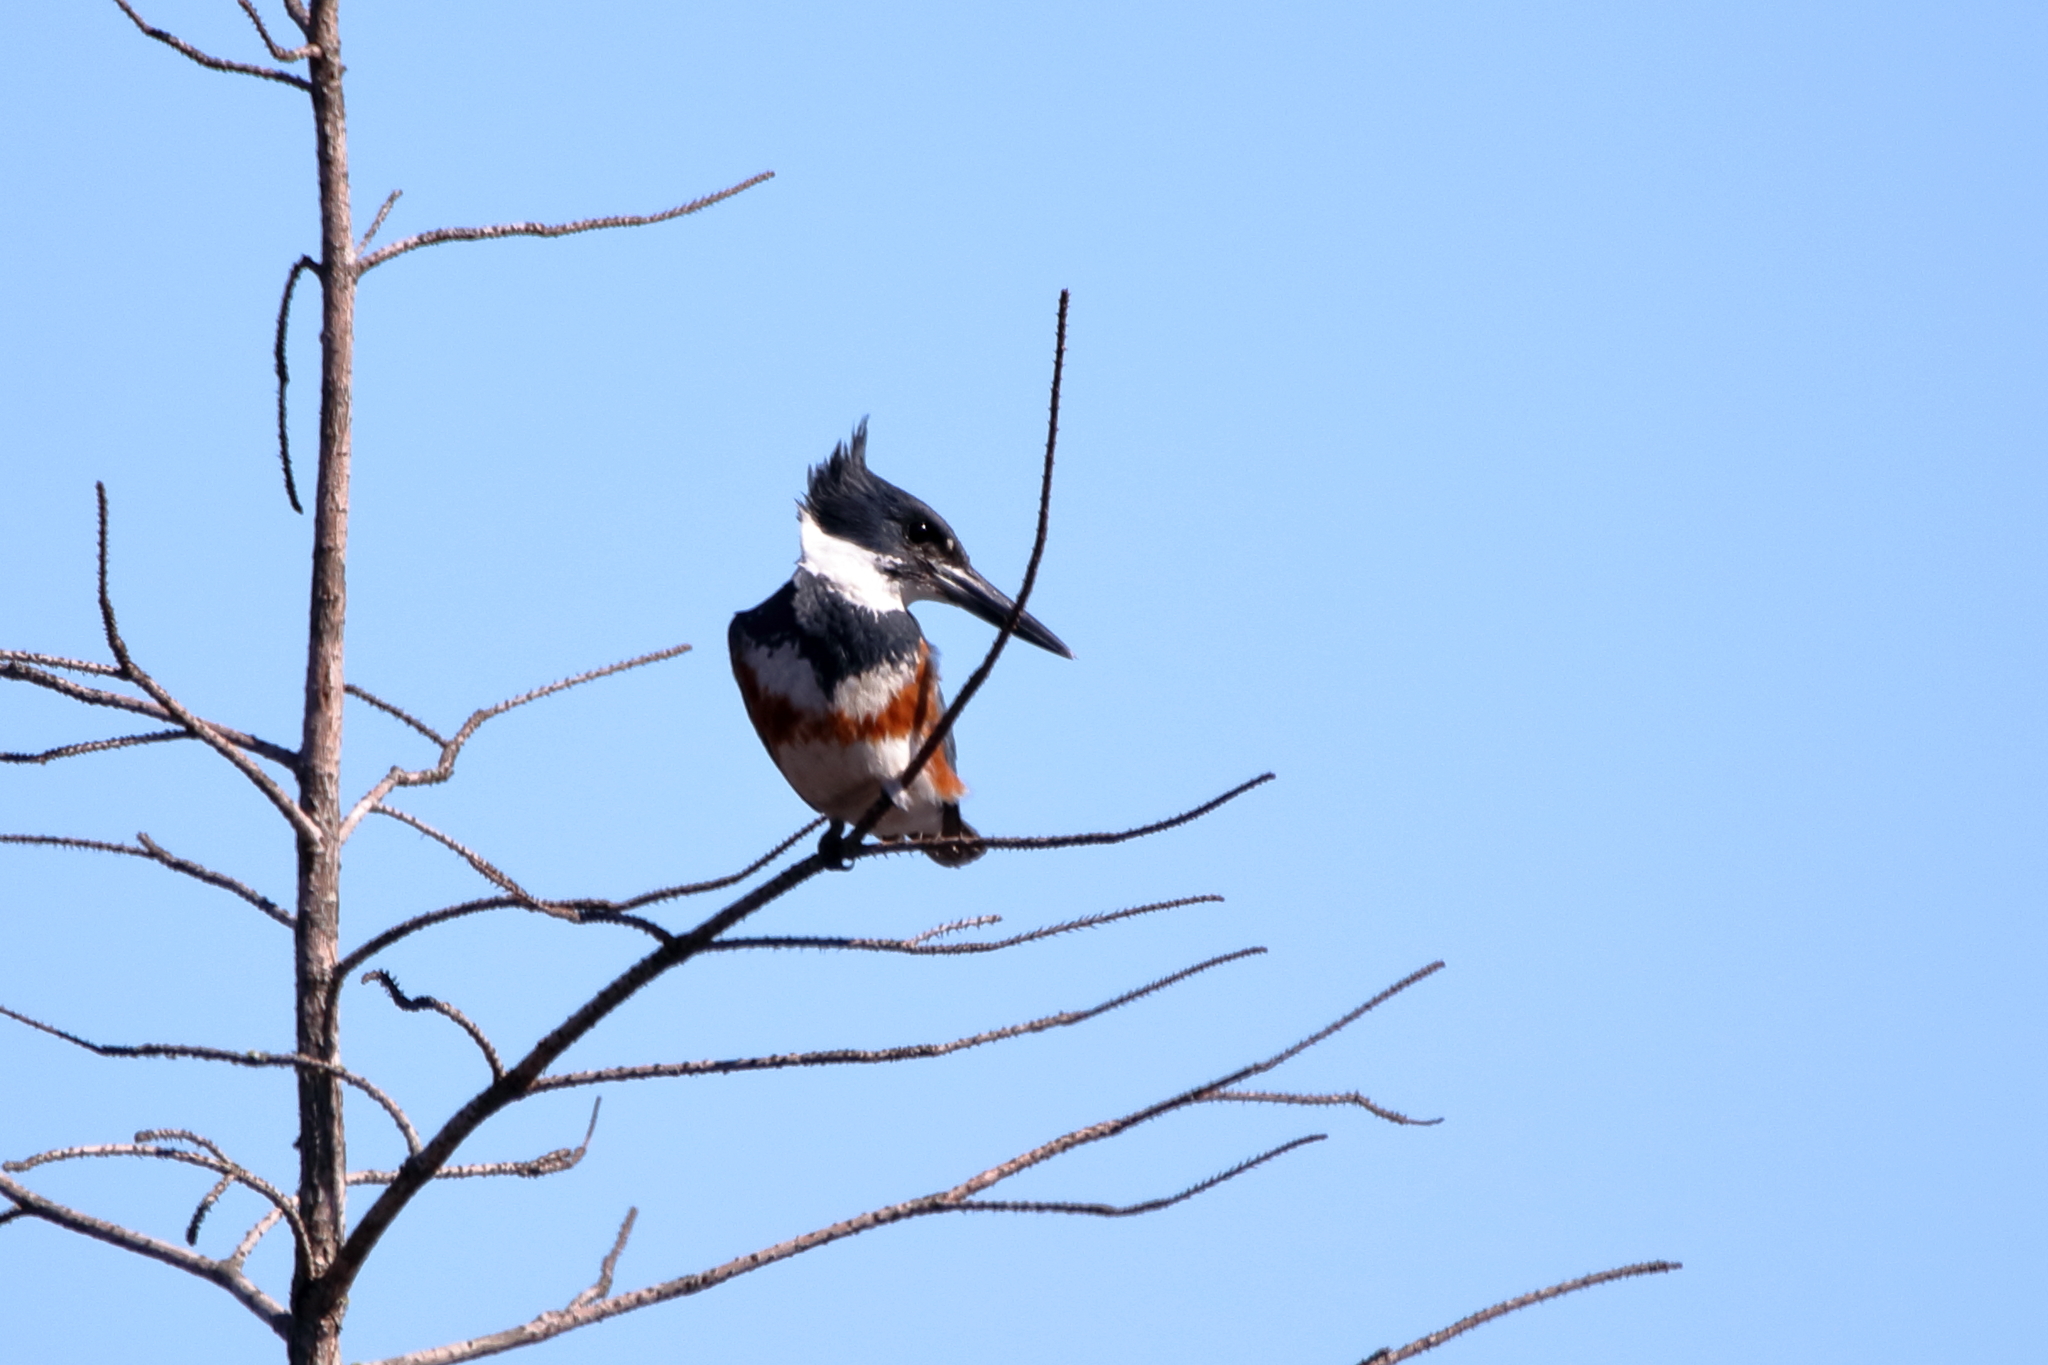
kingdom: Animalia
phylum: Chordata
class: Aves
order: Coraciiformes
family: Alcedinidae
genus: Megaceryle
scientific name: Megaceryle alcyon
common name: Belted kingfisher
